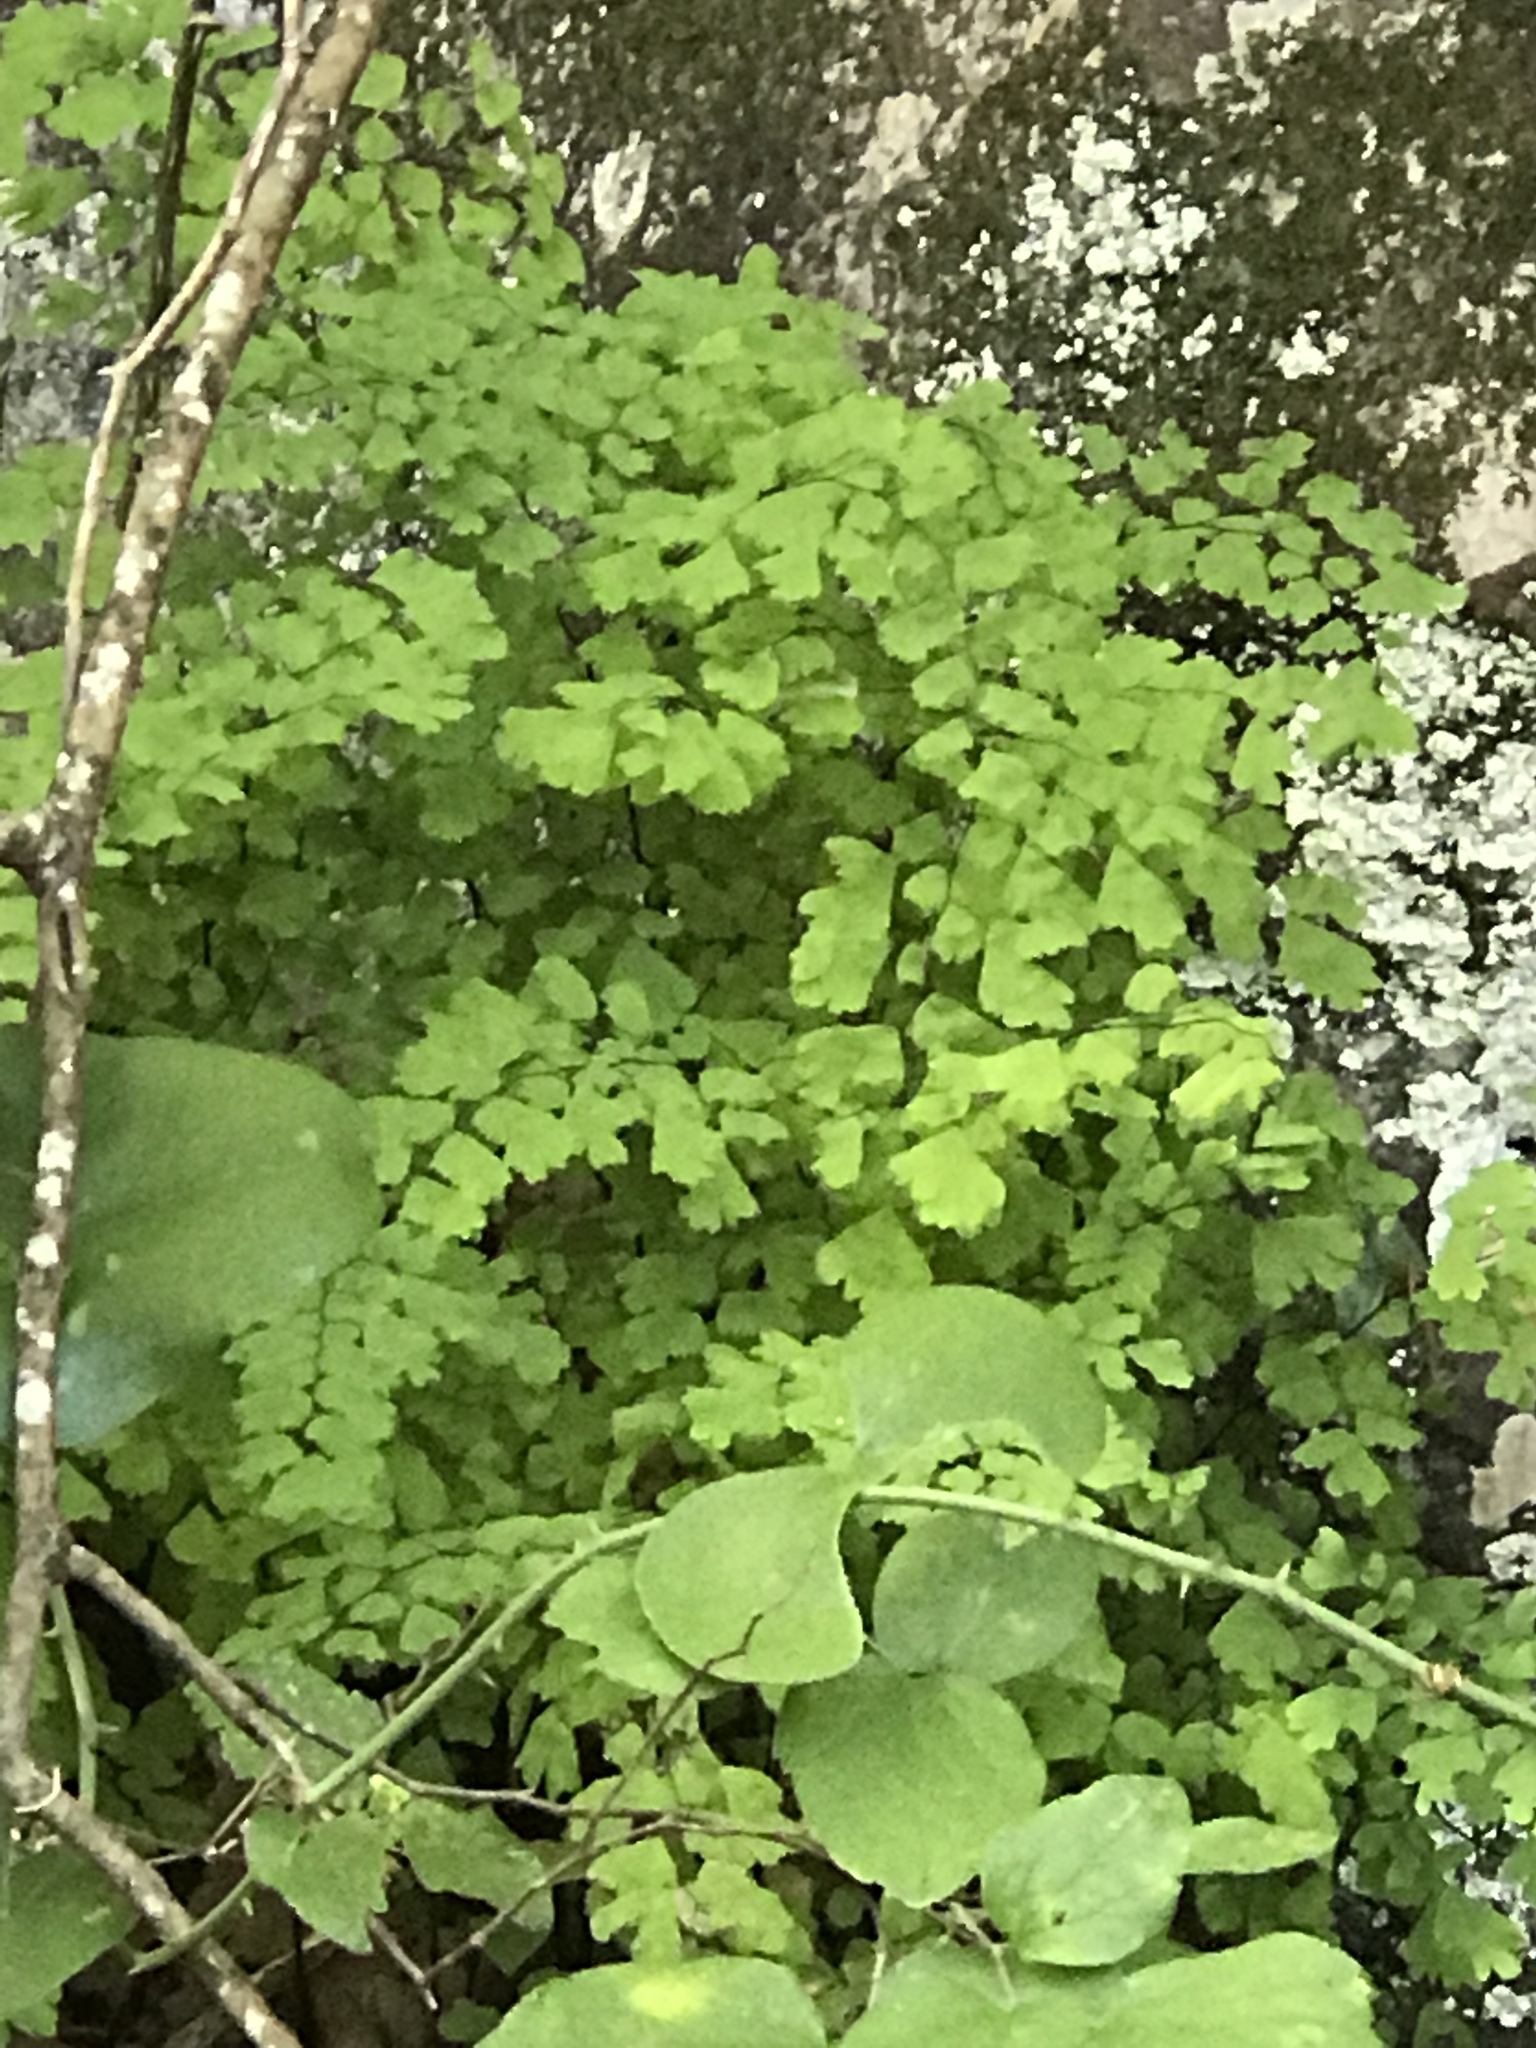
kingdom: Plantae
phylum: Tracheophyta
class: Polypodiopsida
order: Polypodiales
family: Pteridaceae
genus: Adiantum
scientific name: Adiantum capillus-veneris
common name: Maidenhair fern
